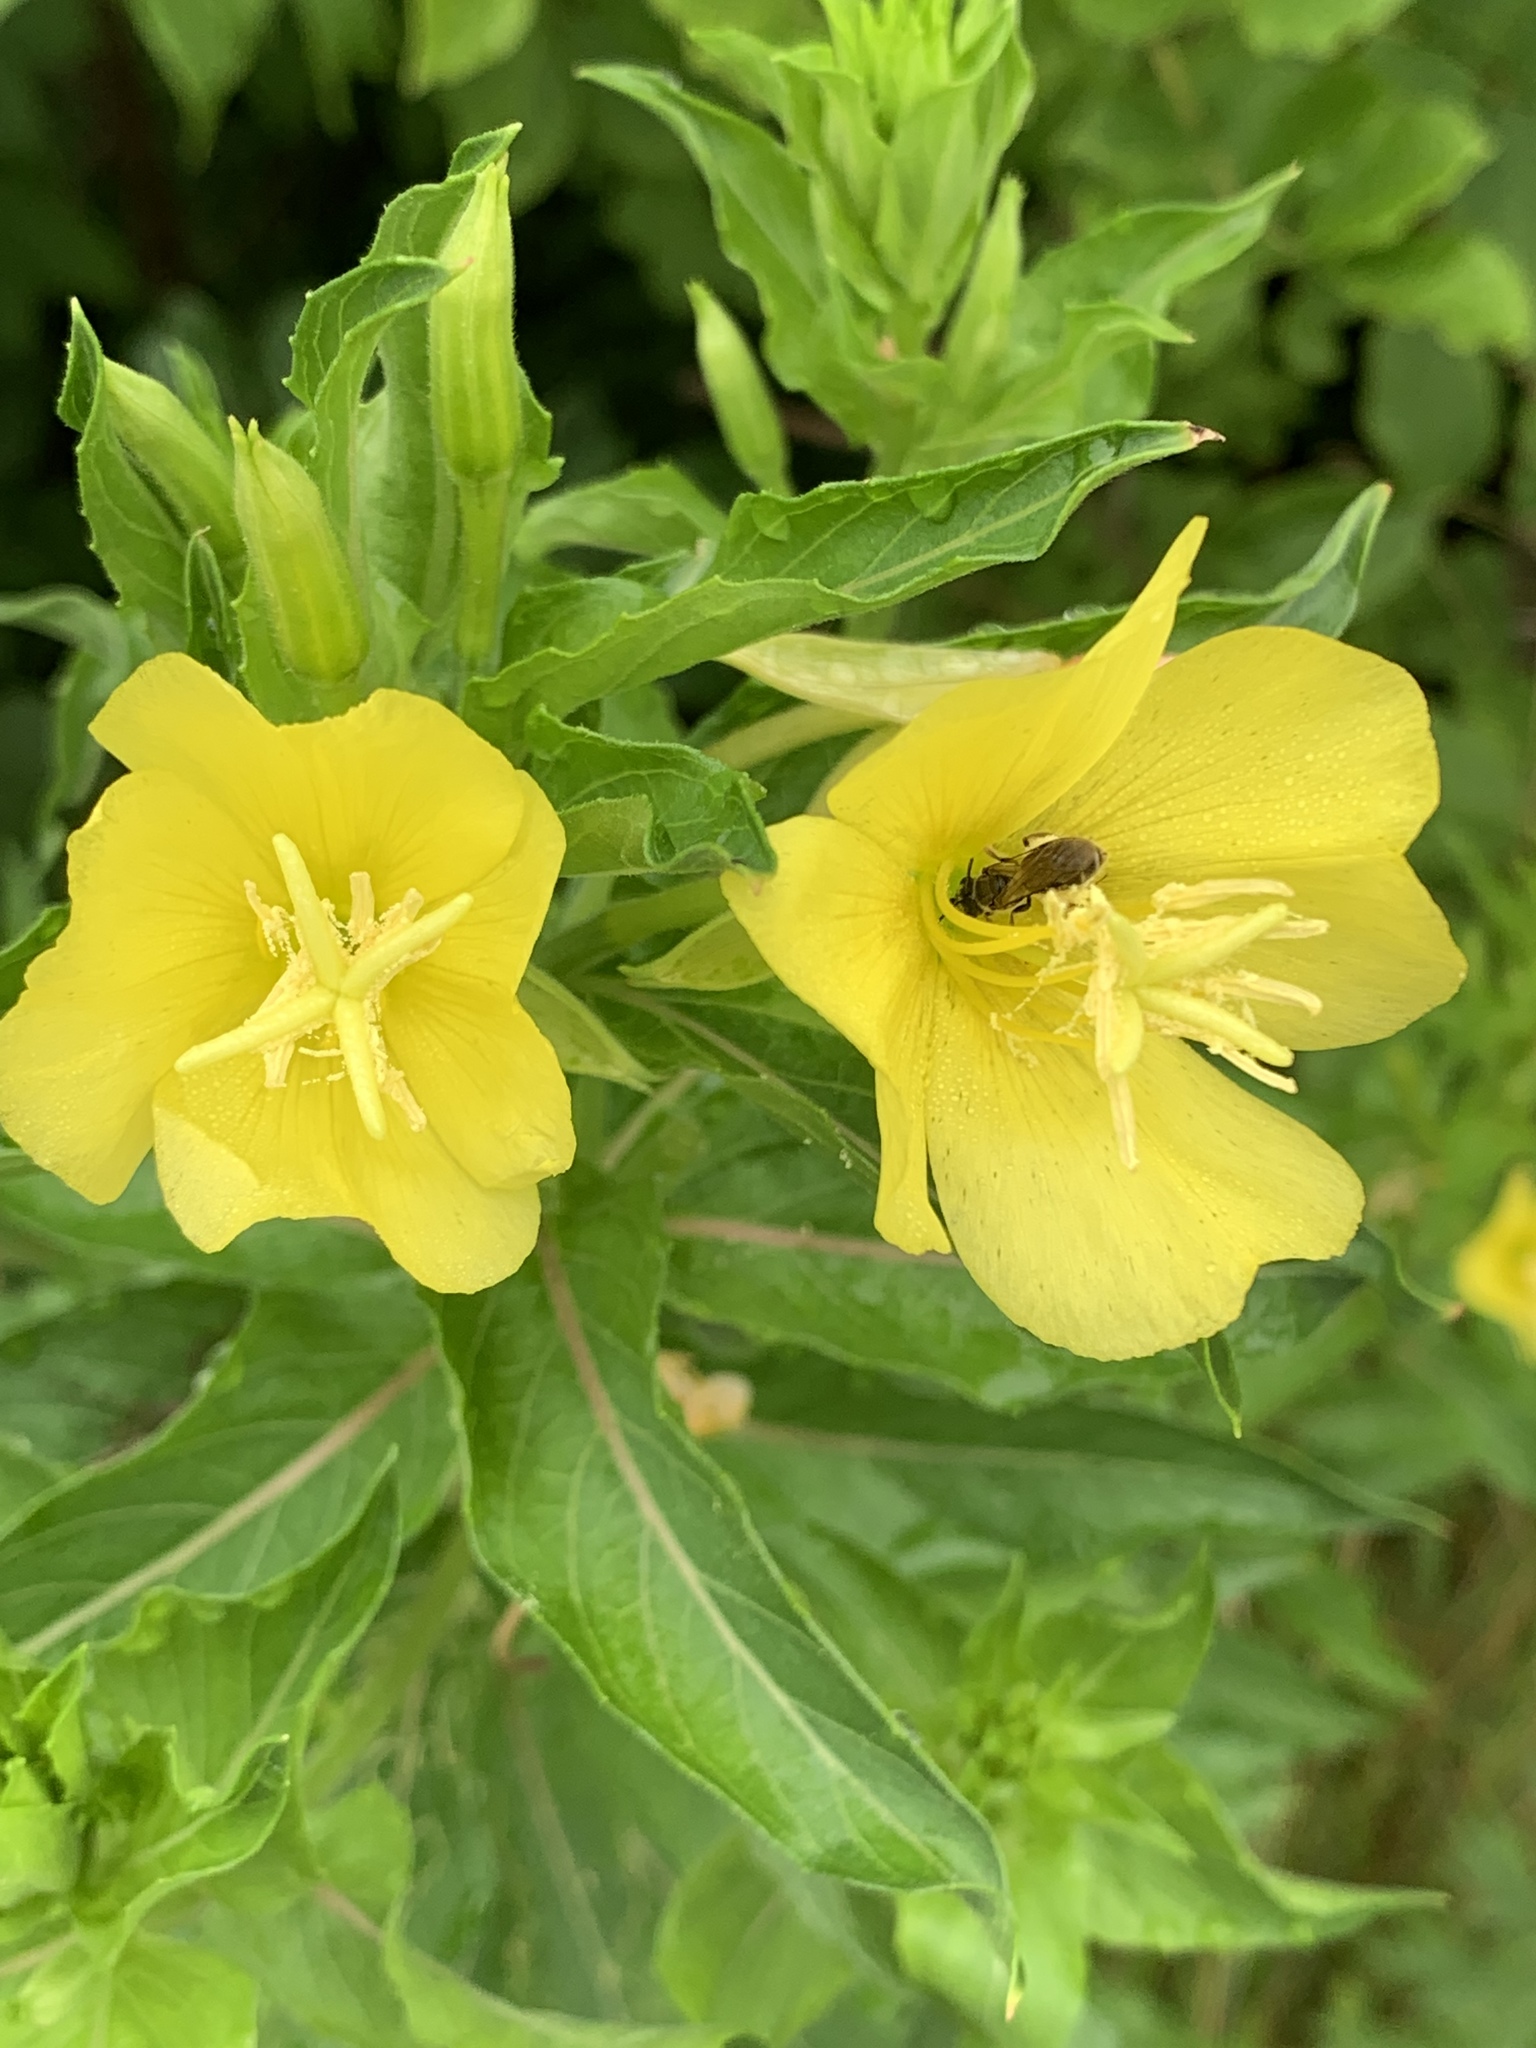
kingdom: Plantae
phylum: Tracheophyta
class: Magnoliopsida
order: Myrtales
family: Onagraceae
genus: Oenothera
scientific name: Oenothera biennis
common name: Common evening-primrose
